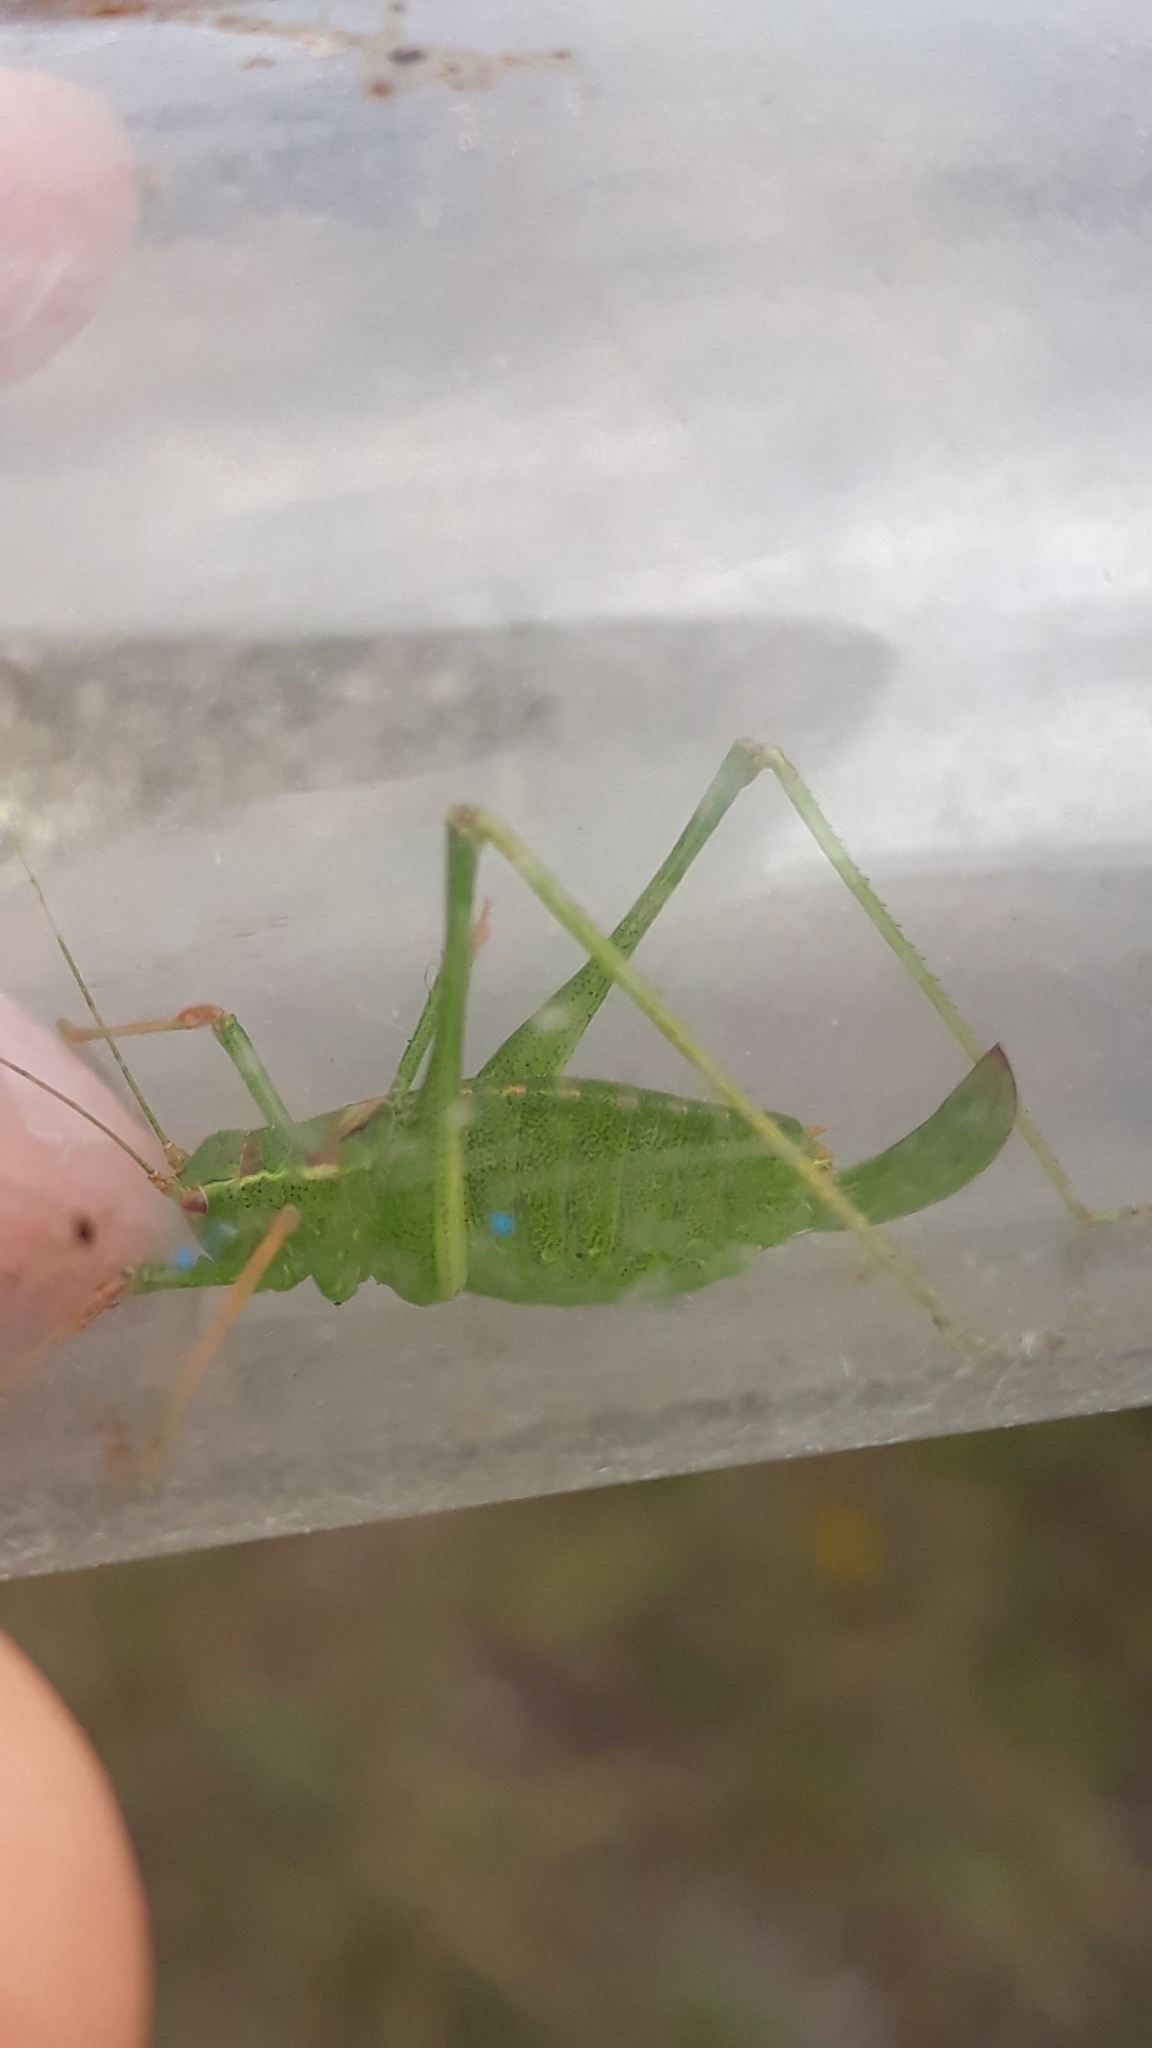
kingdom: Animalia
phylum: Arthropoda
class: Insecta
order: Orthoptera
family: Tettigoniidae
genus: Leptophyes
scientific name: Leptophyes punctatissima
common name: Speckled bush-cricket
